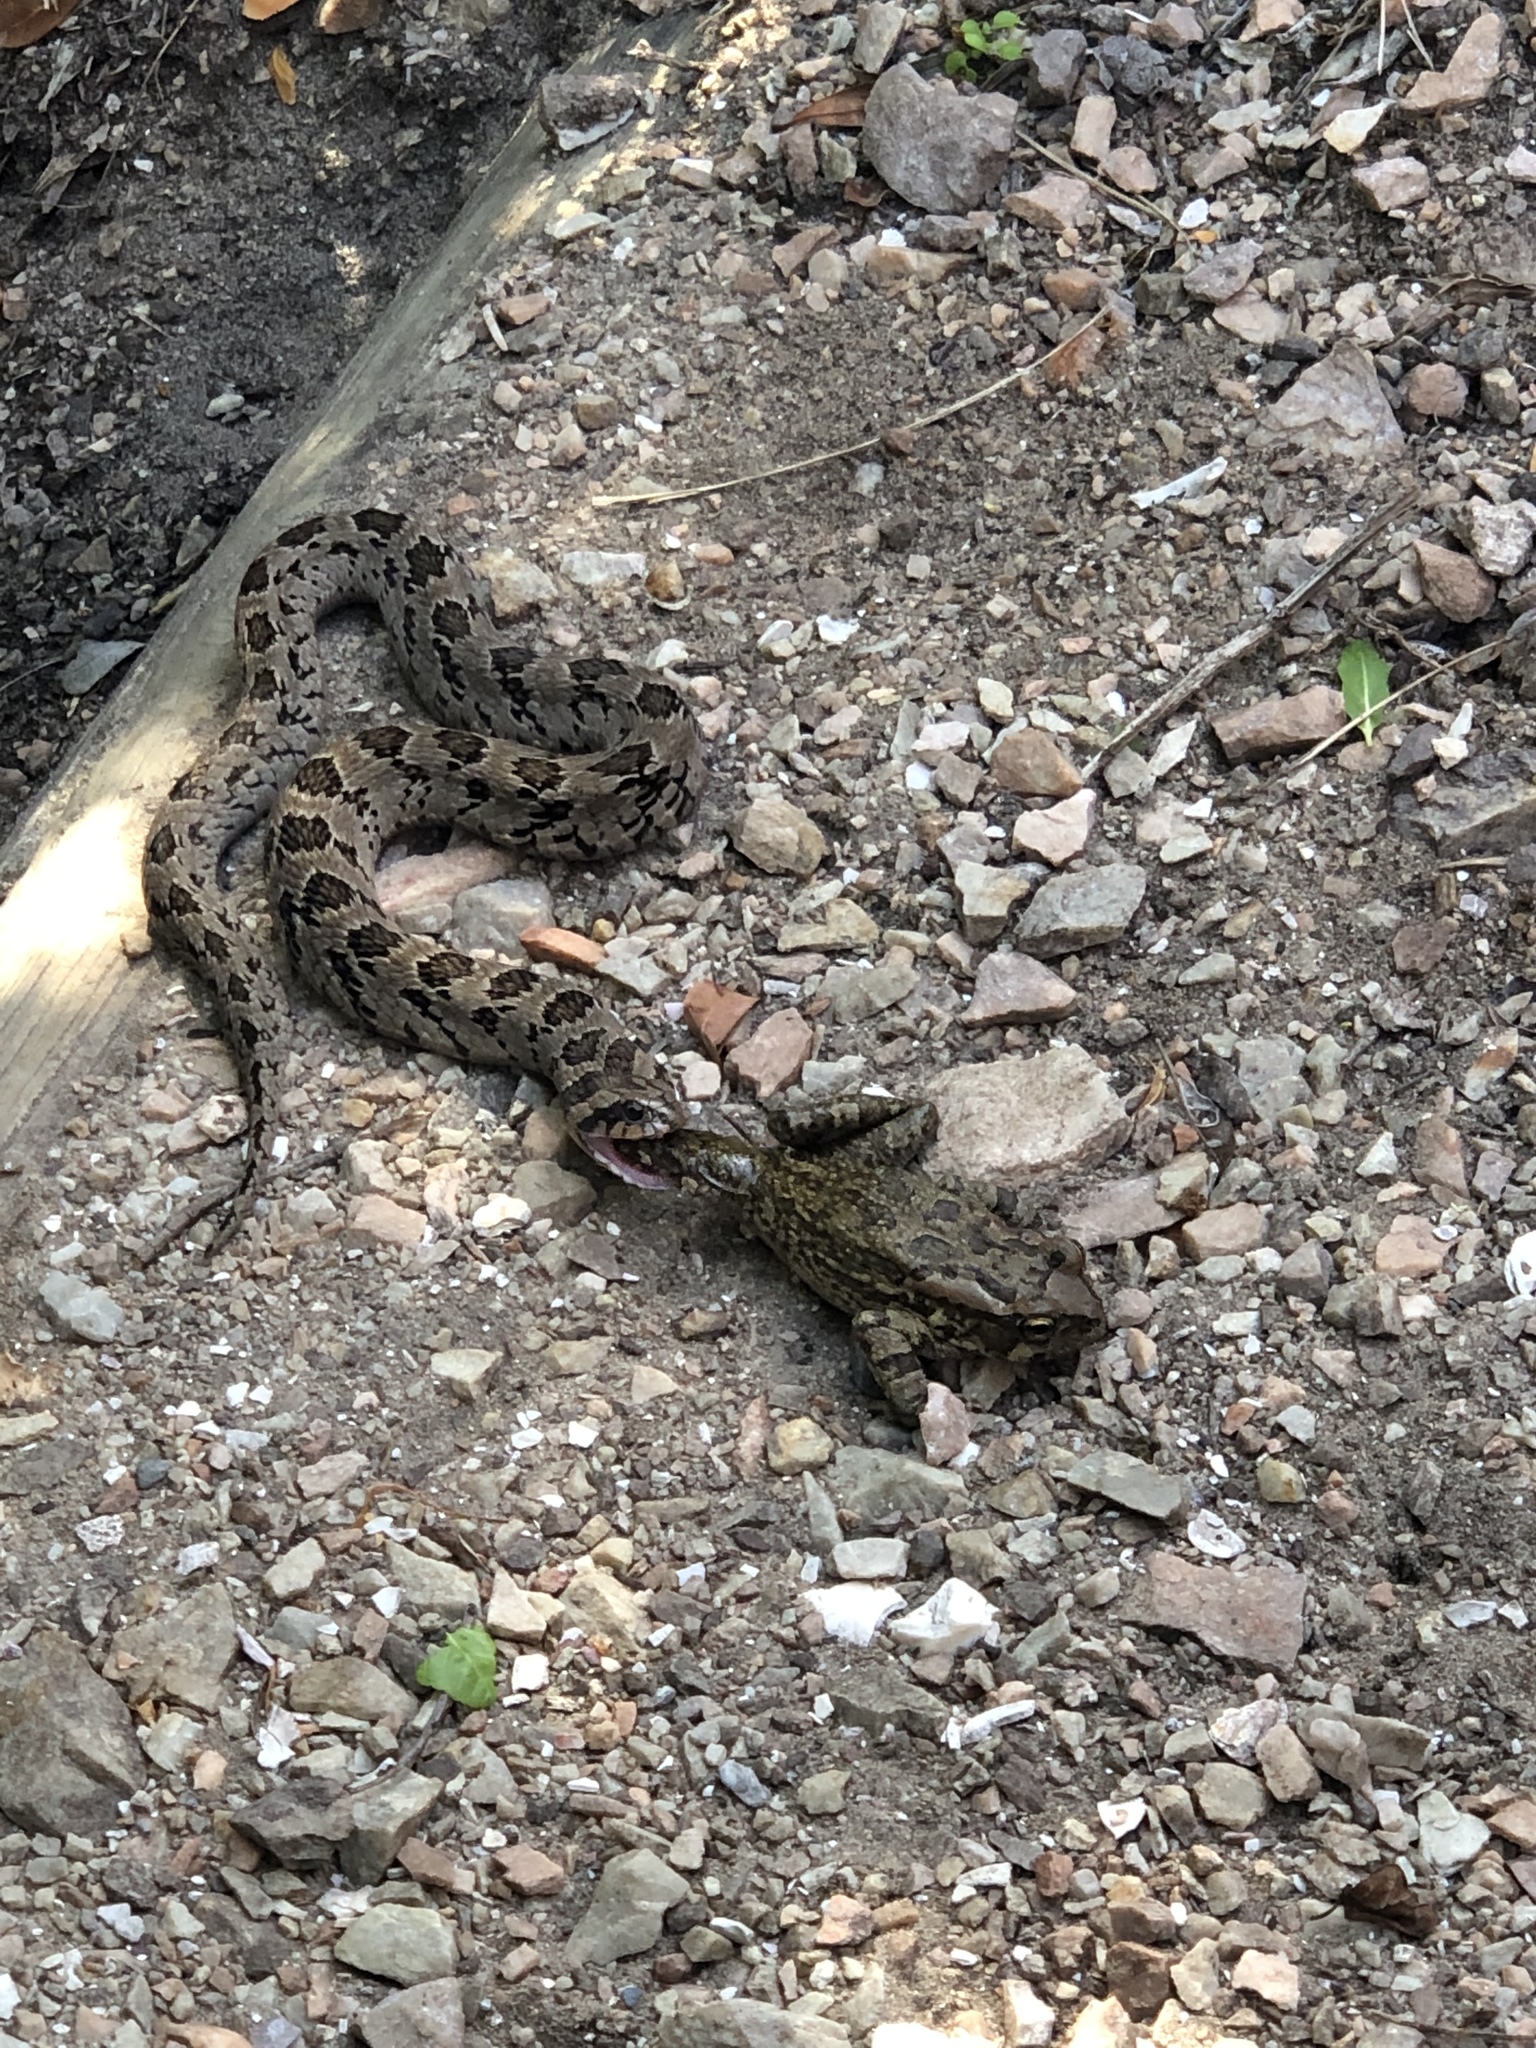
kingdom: Animalia
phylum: Chordata
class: Squamata
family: Viperidae
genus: Causus
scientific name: Causus rhombeatus
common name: Common night adder
